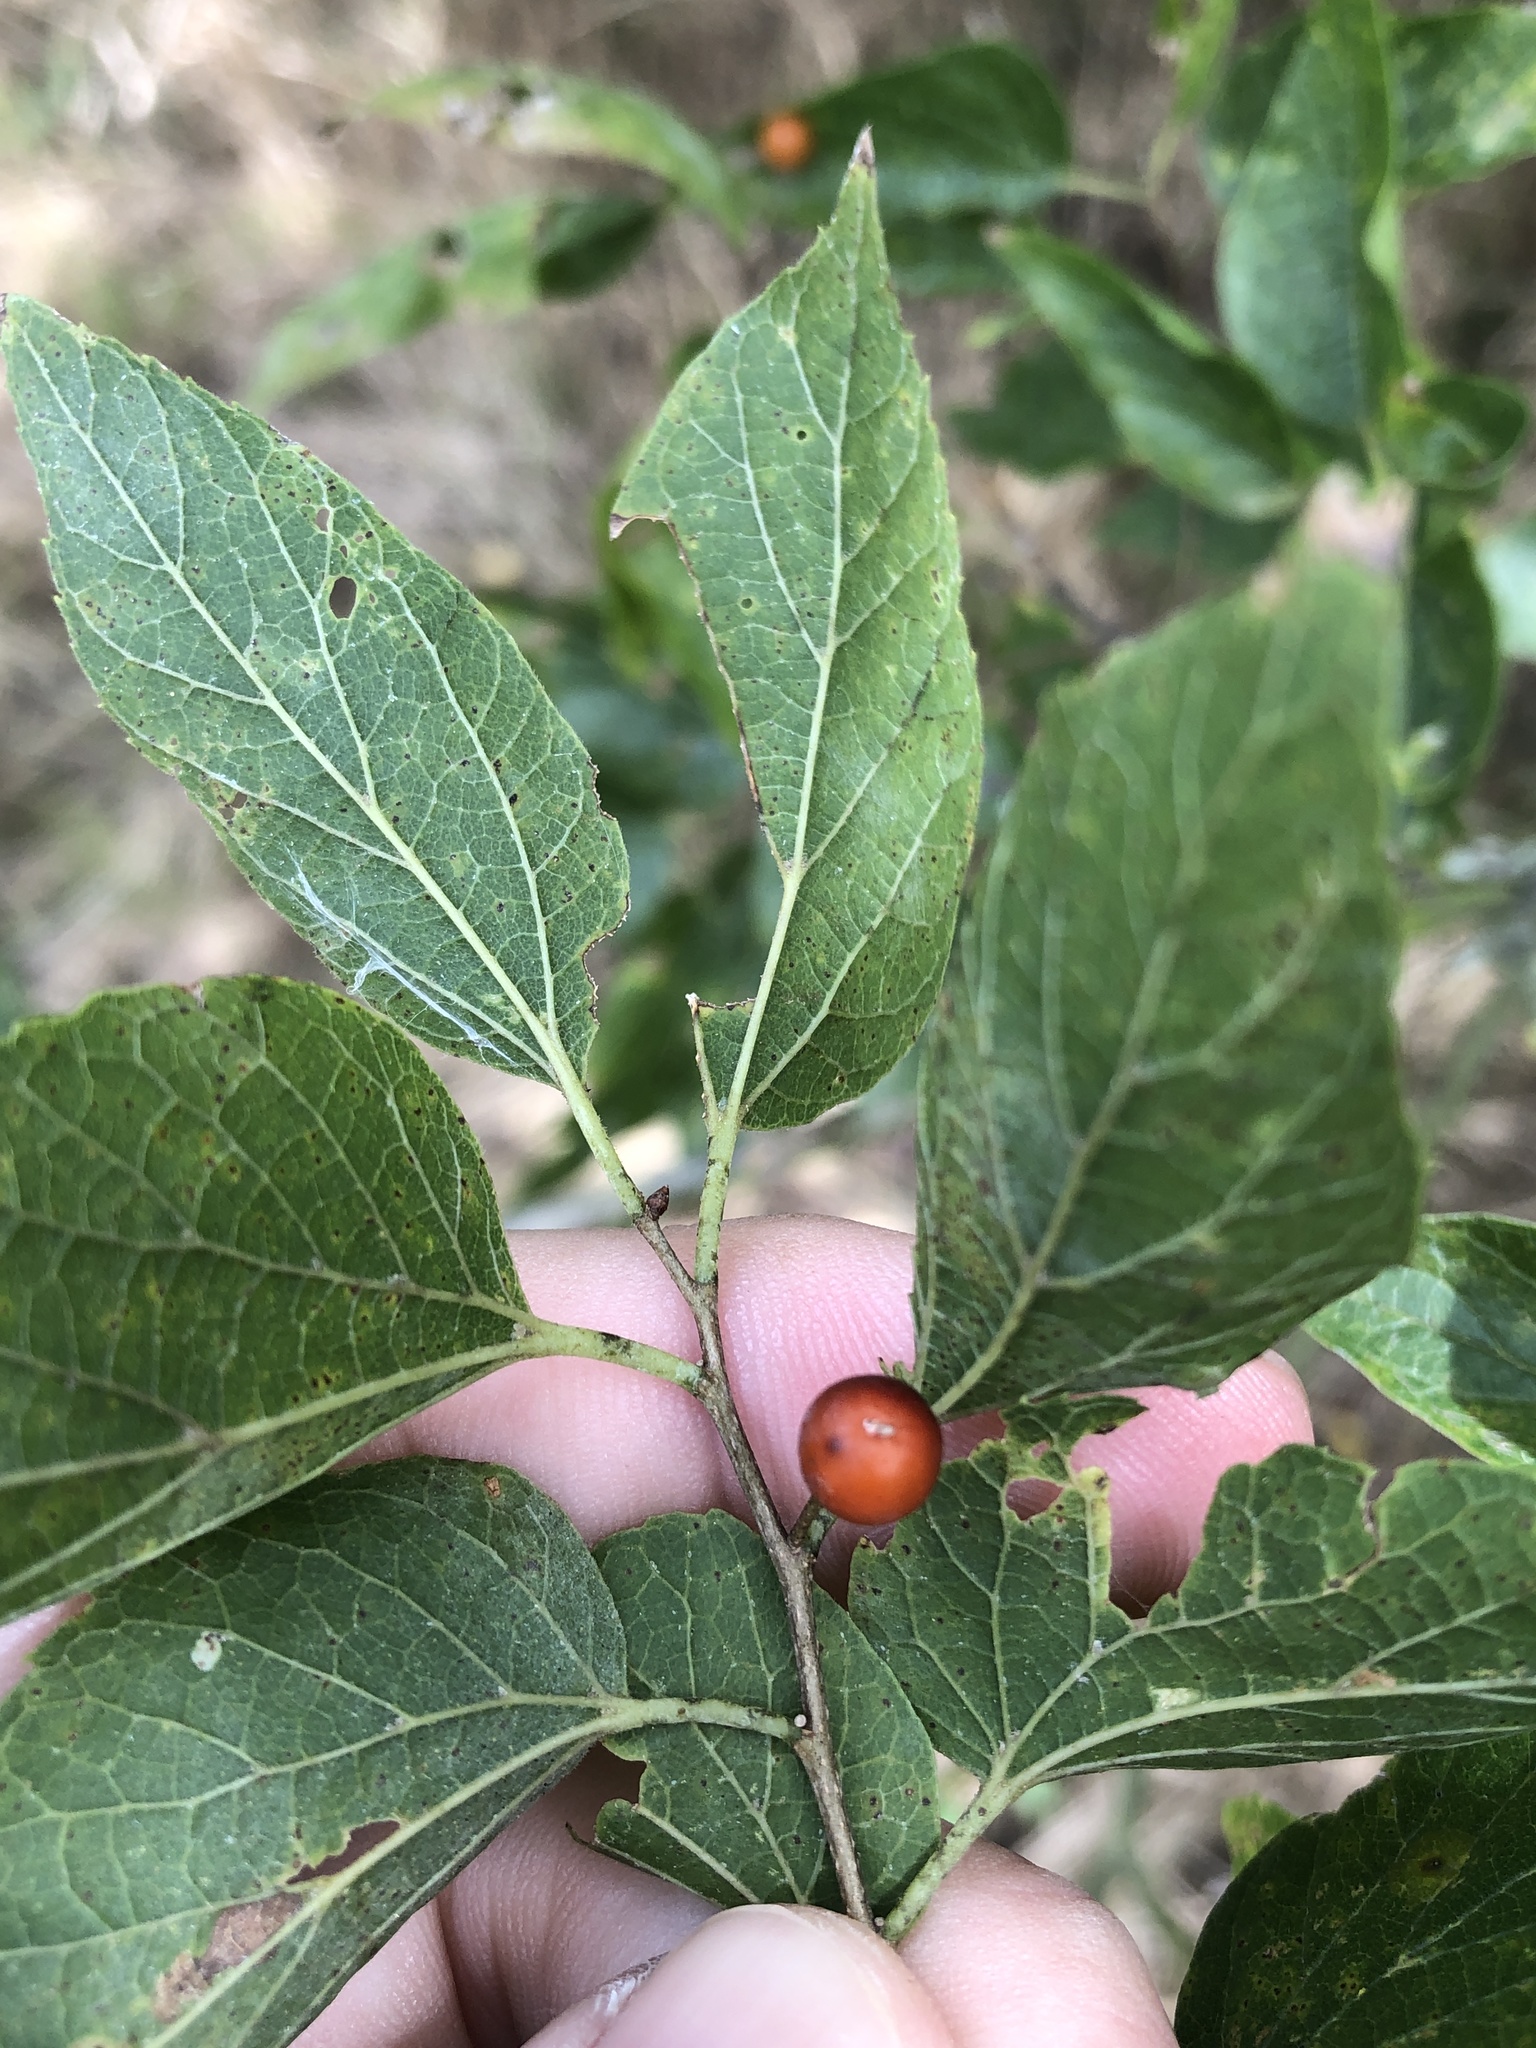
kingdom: Plantae
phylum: Tracheophyta
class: Magnoliopsida
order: Rosales
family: Cannabaceae
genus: Celtis
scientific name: Celtis laevigata
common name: Sugarberry
